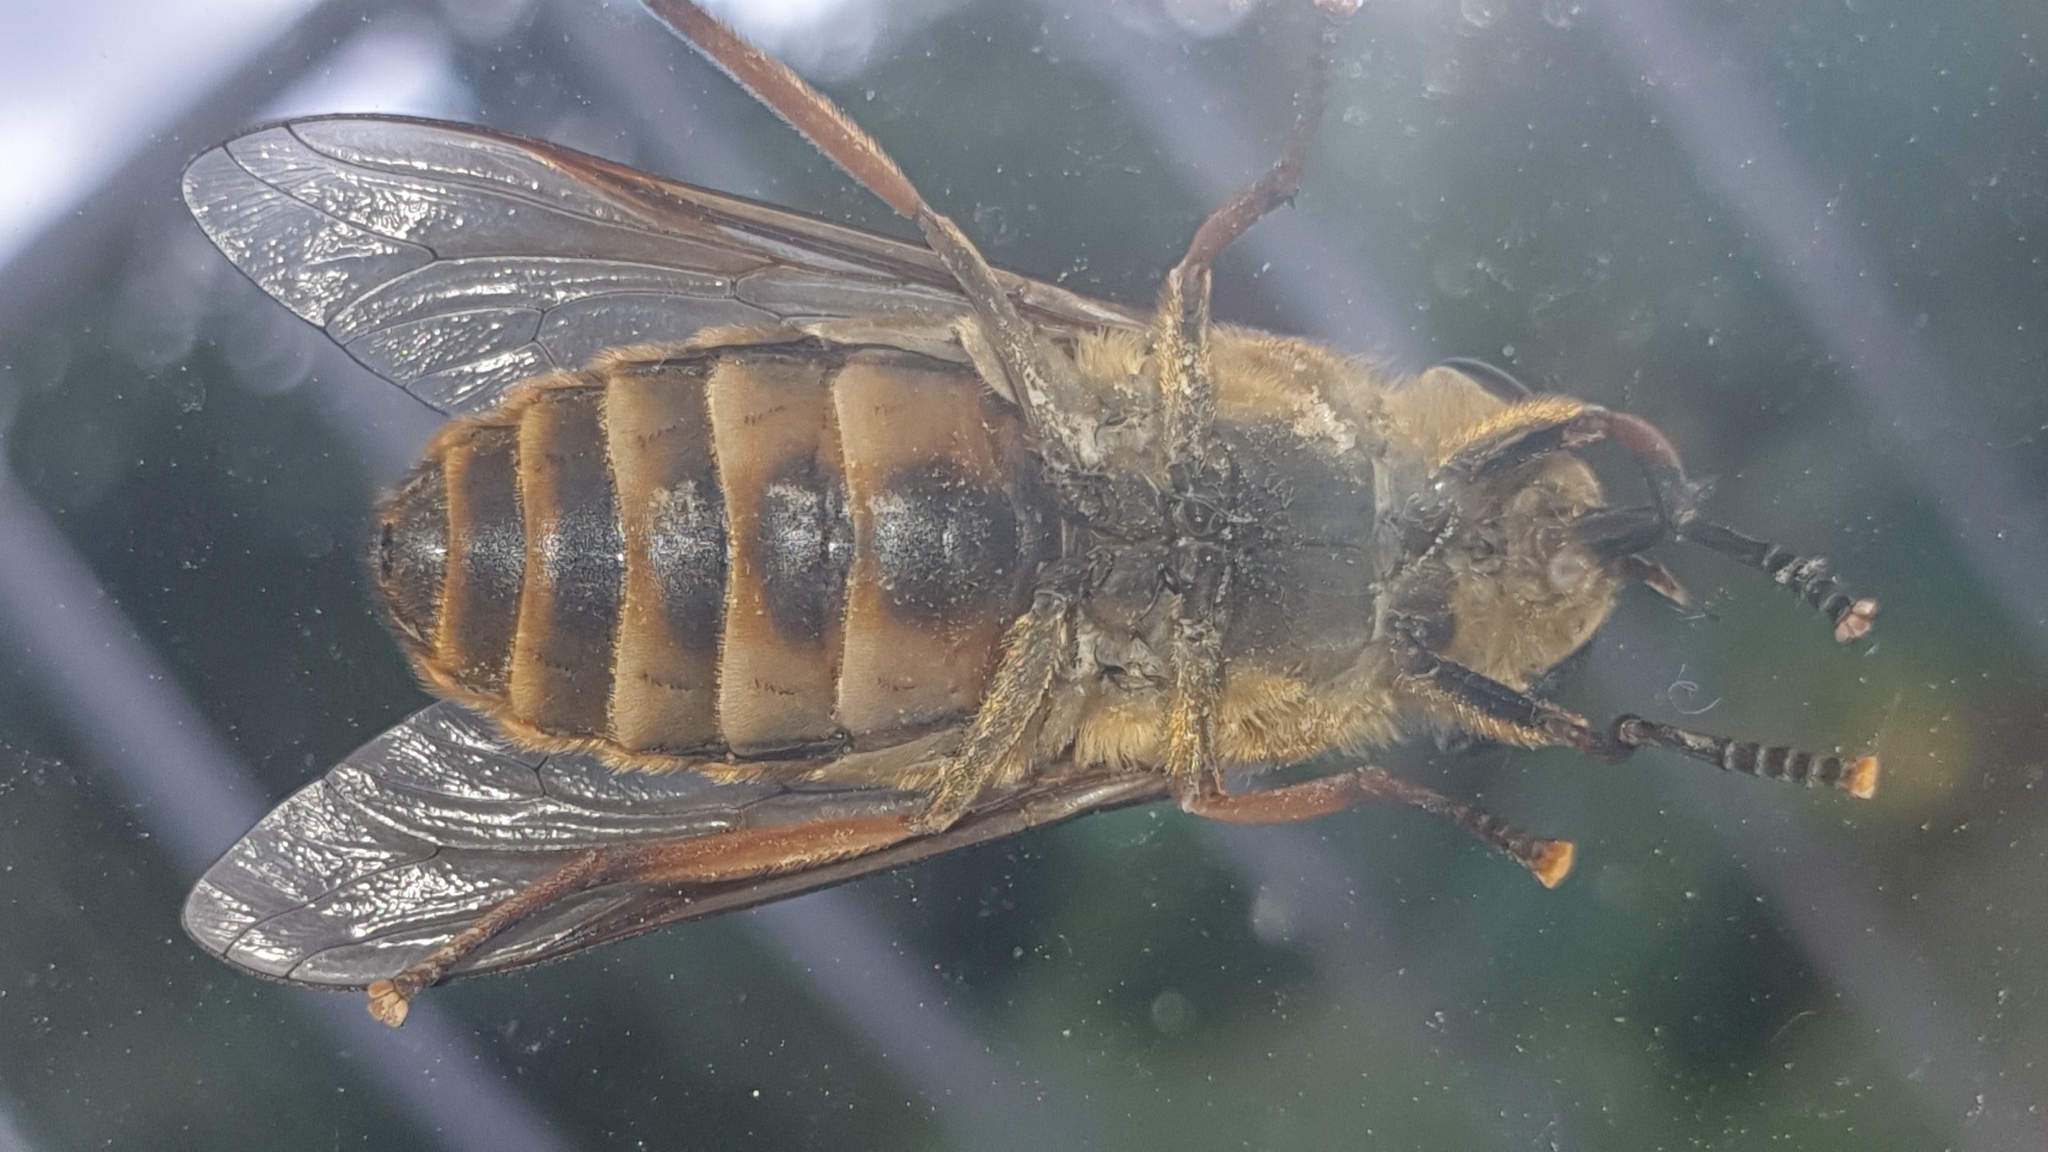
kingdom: Animalia
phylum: Arthropoda
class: Insecta
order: Diptera
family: Tabanidae
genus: Tabanus
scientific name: Tabanus sudeticus
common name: Dark giant horsefly
